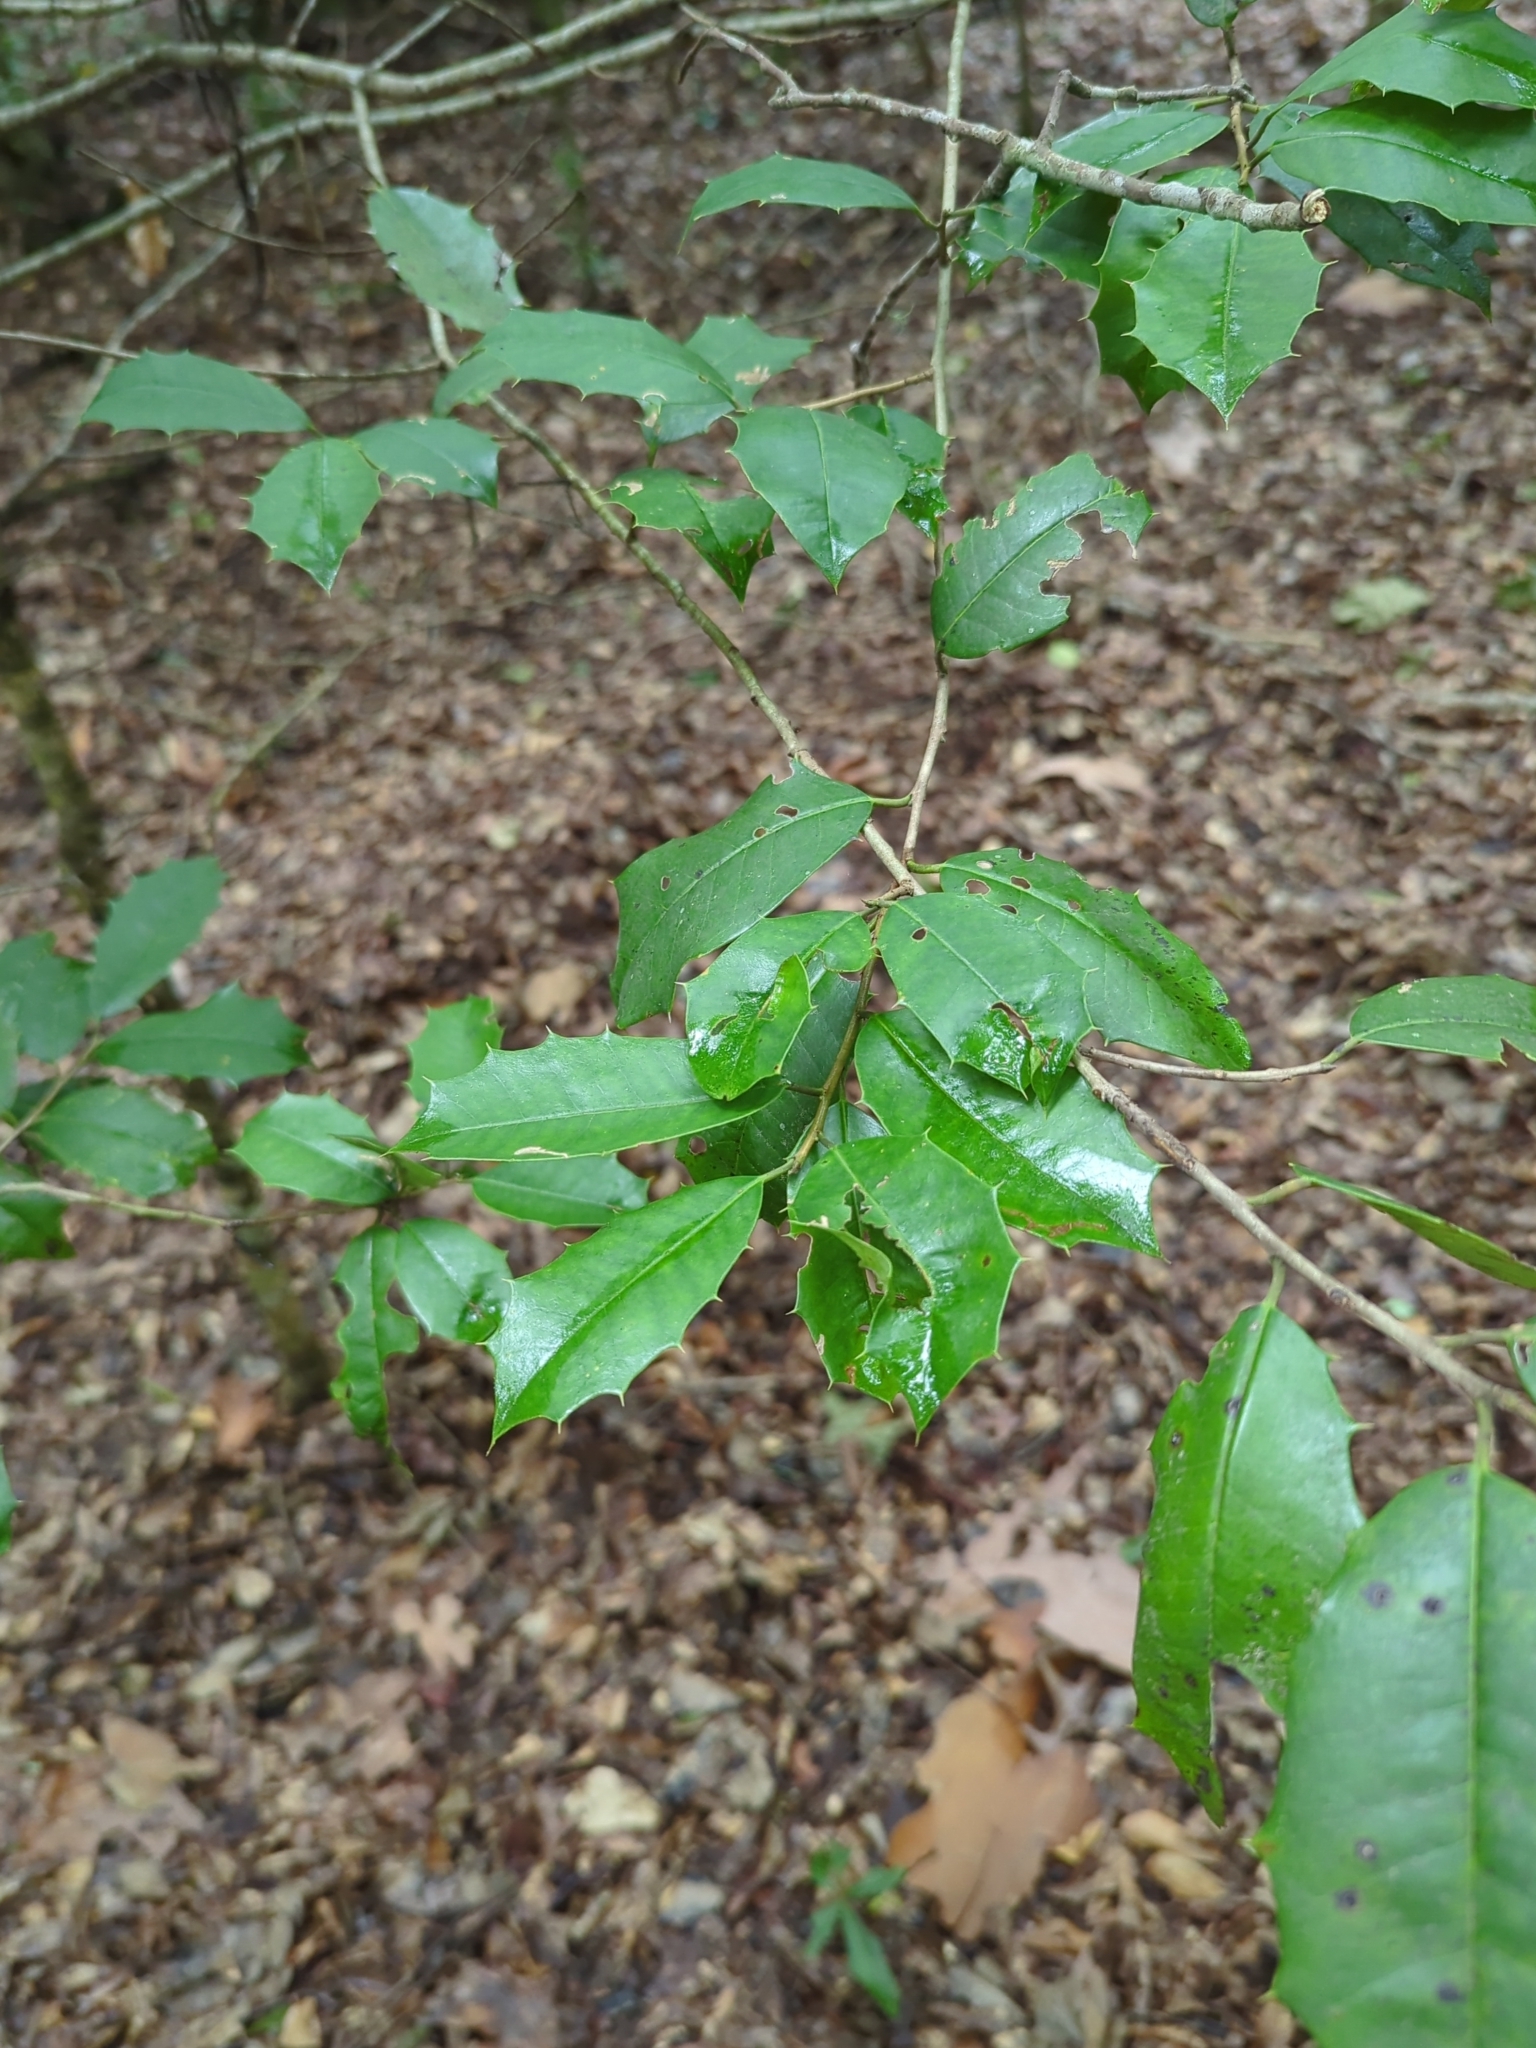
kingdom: Plantae
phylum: Tracheophyta
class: Magnoliopsida
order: Aquifoliales
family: Aquifoliaceae
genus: Ilex
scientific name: Ilex opaca
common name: American holly
